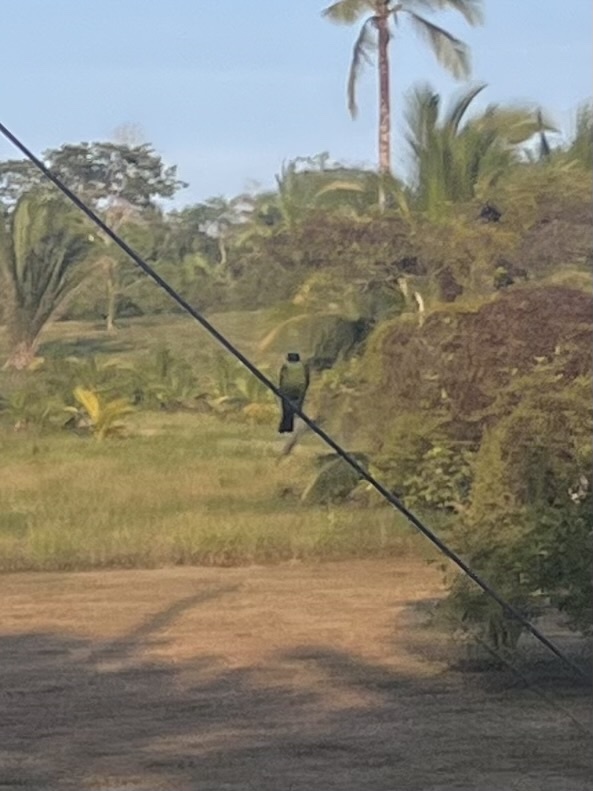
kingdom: Animalia
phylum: Chordata
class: Aves
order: Passeriformes
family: Tyrannidae
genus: Myiozetetes
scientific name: Myiozetetes similis
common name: Social flycatcher
